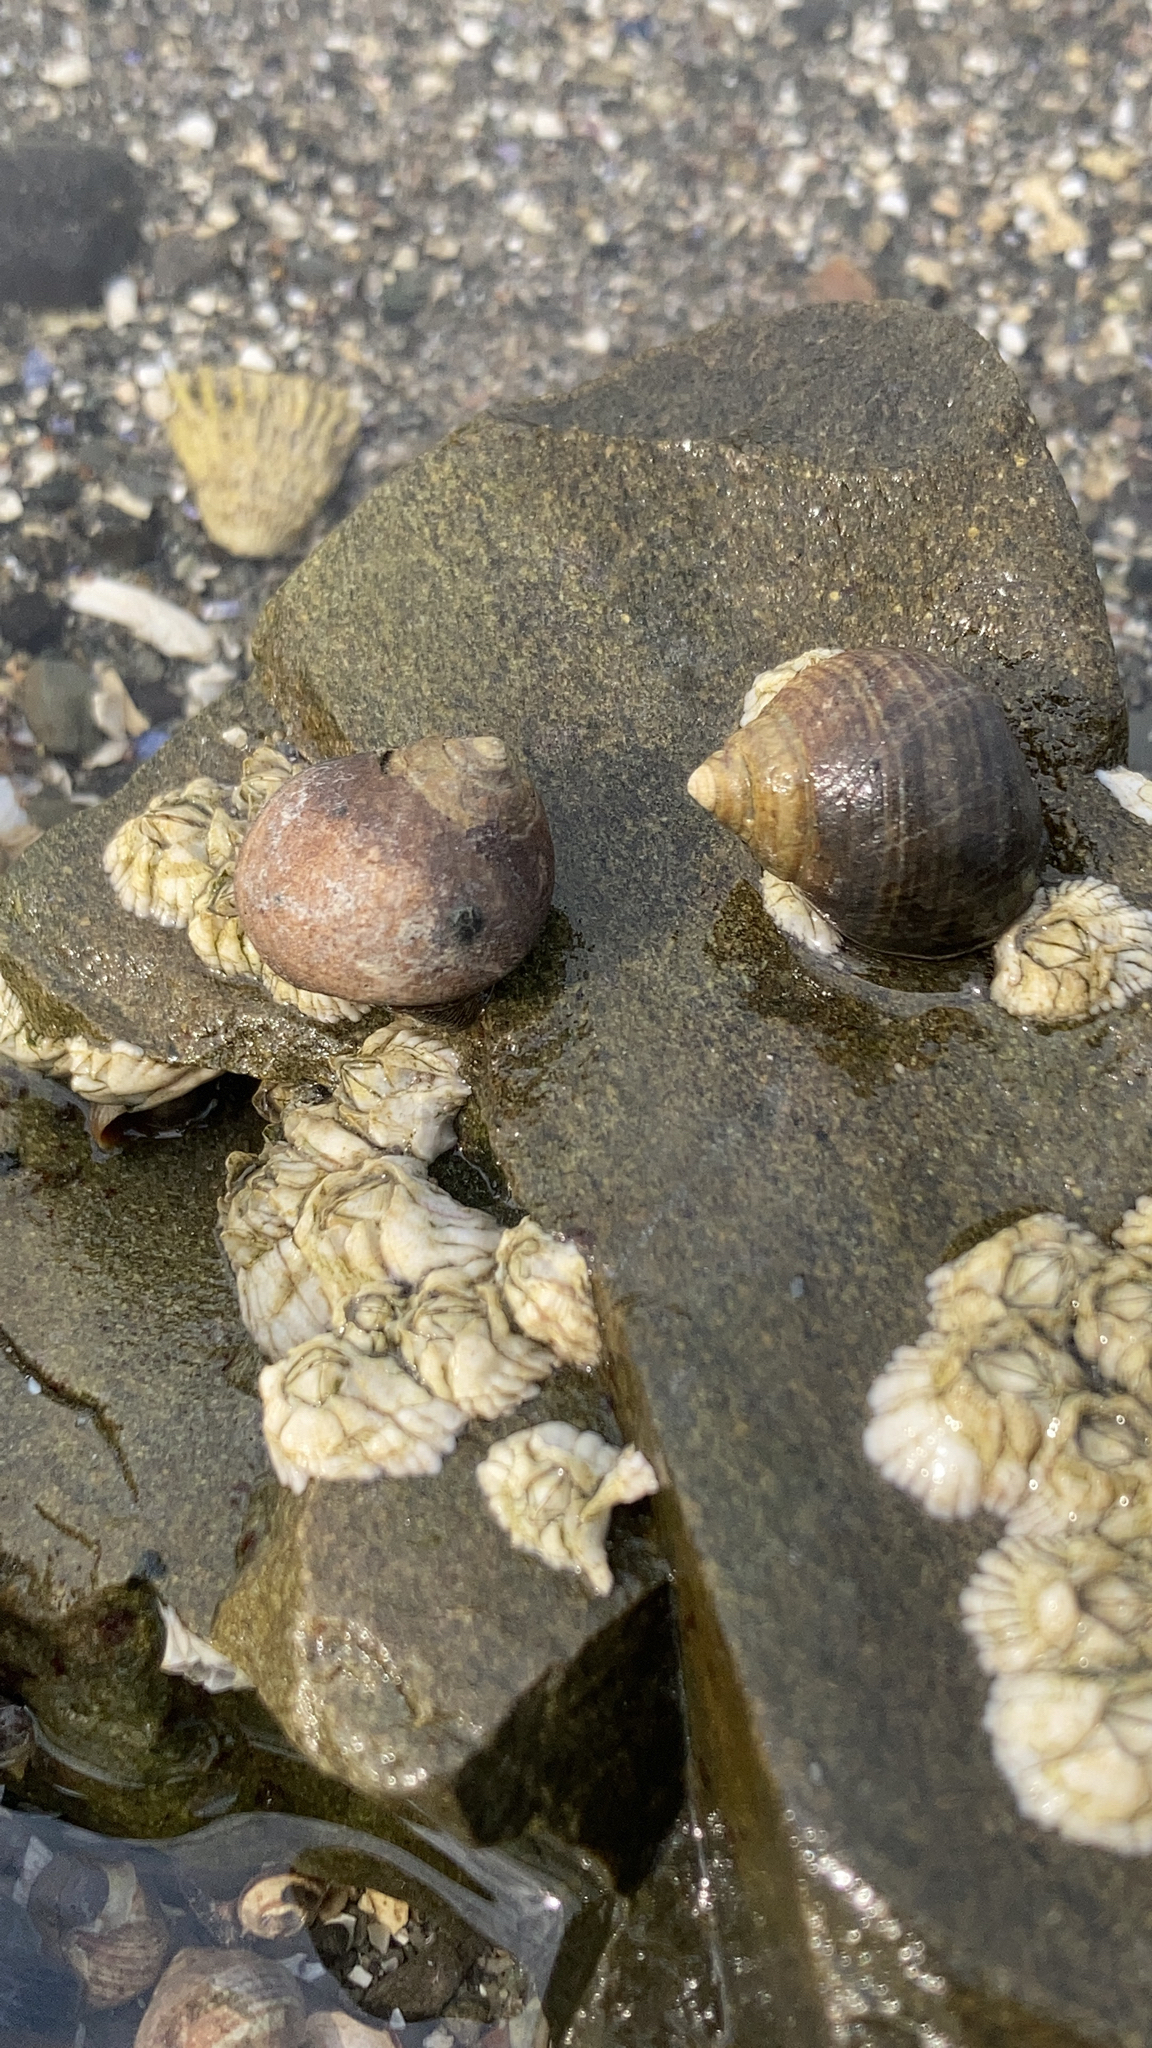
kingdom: Animalia
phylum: Mollusca
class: Gastropoda
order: Littorinimorpha
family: Littorinidae
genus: Littorina
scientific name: Littorina littorea
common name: Common periwinkle
